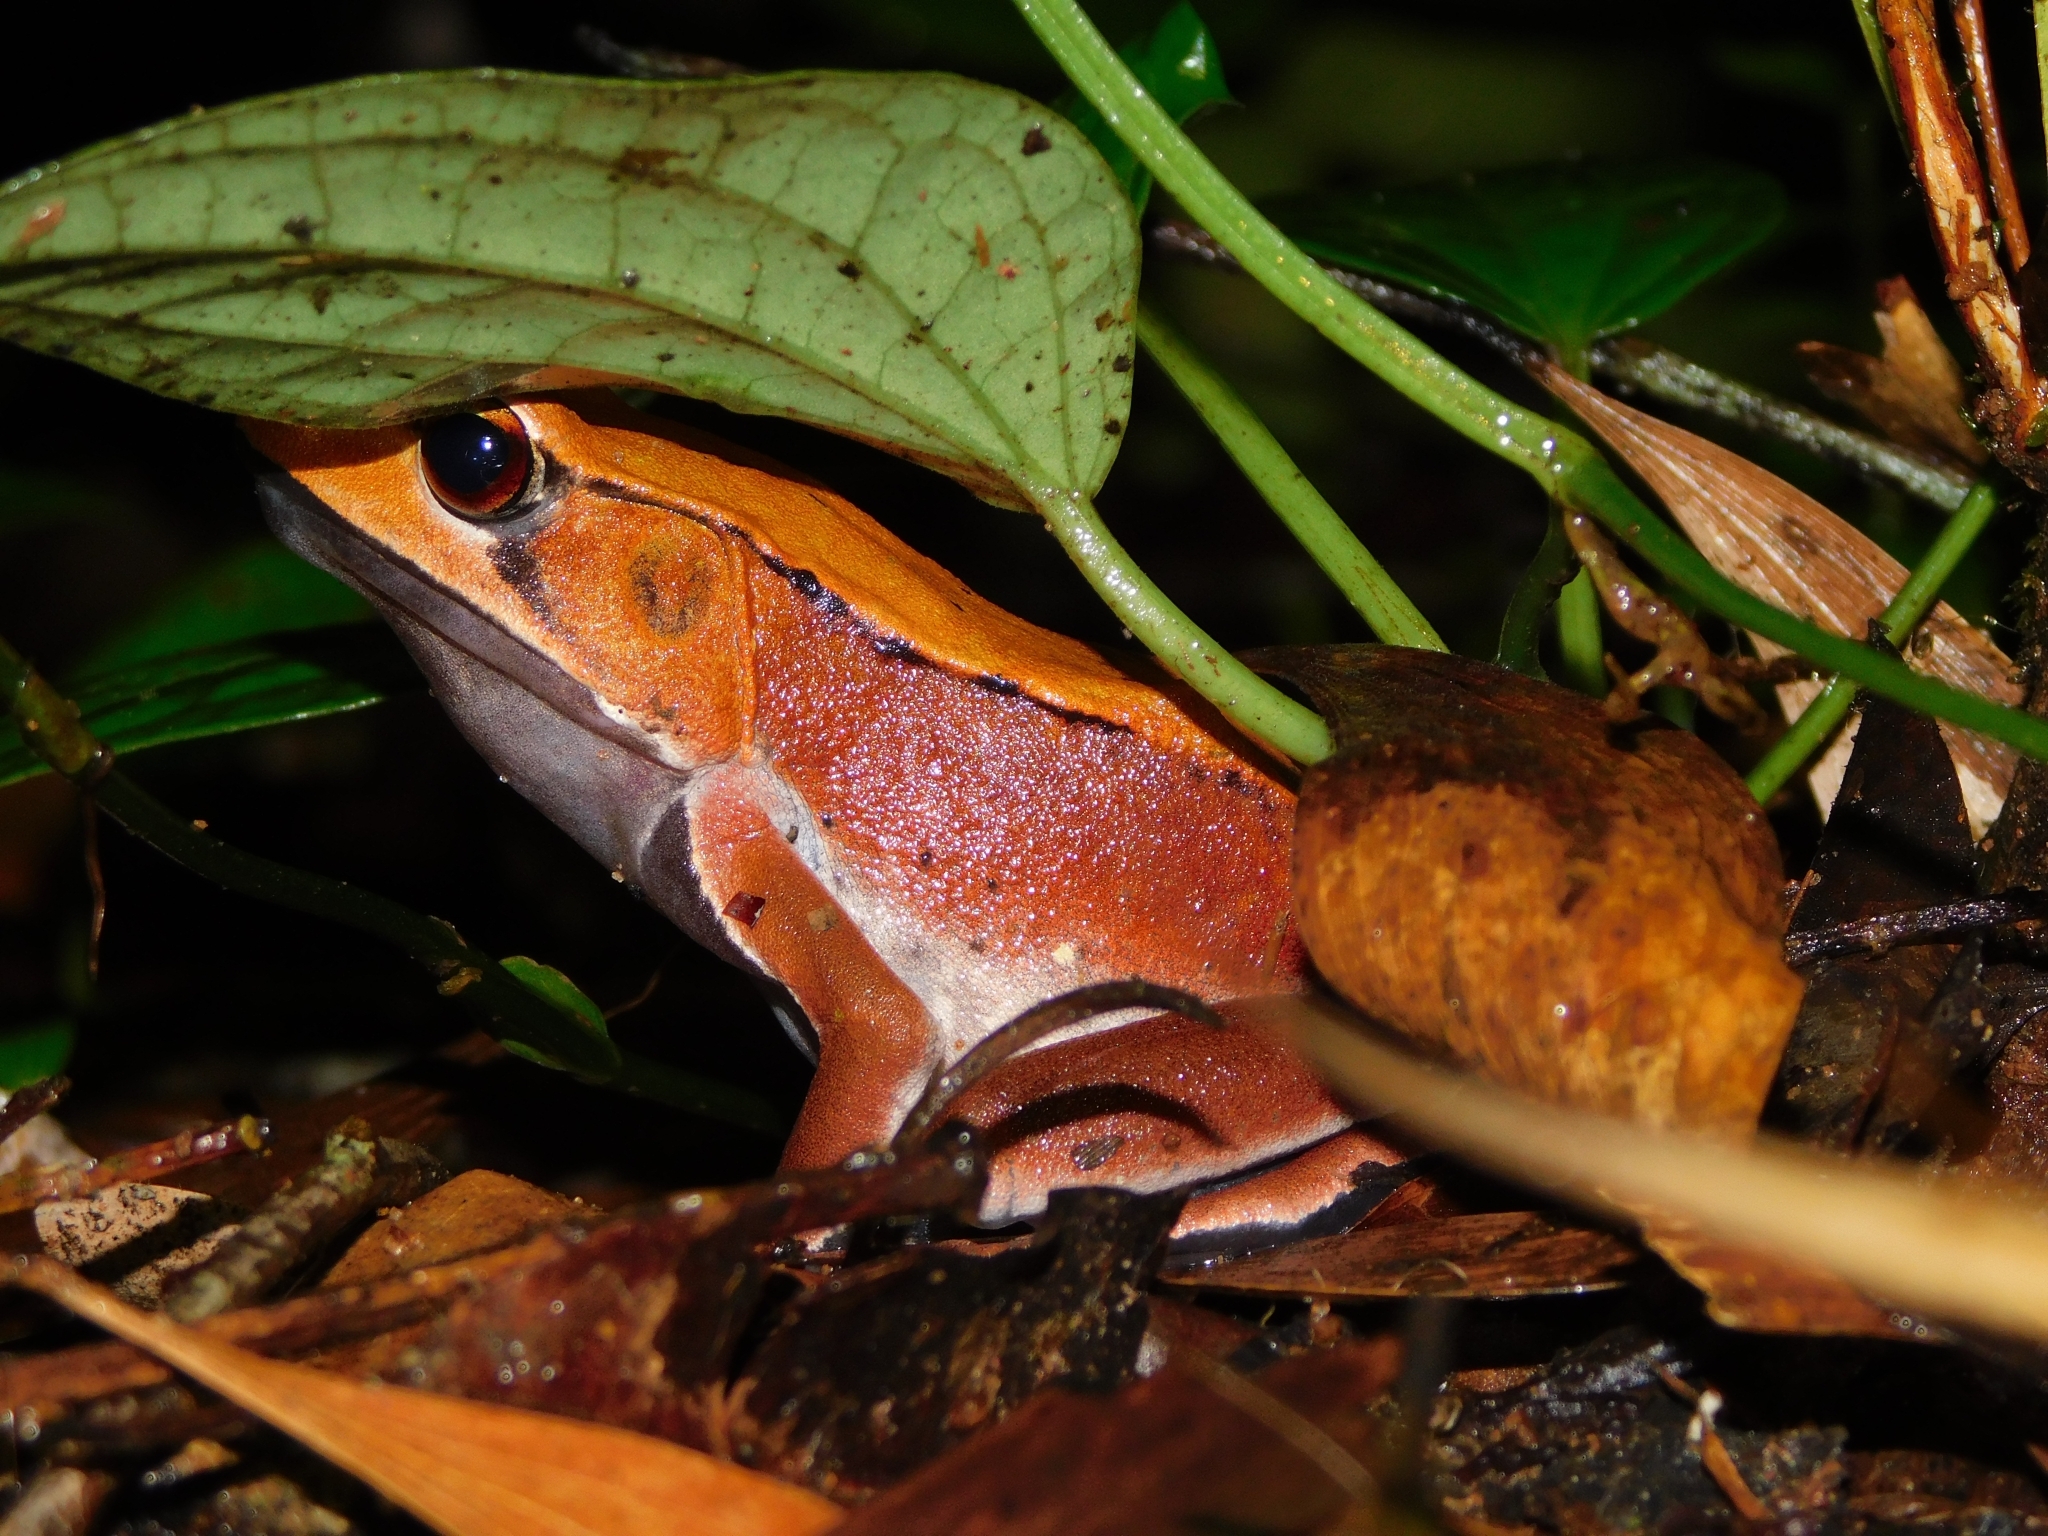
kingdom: Animalia
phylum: Chordata
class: Amphibia
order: Anura
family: Ranidae
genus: Clinotarsus
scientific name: Clinotarsus curtipes
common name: Bicoloured frog
